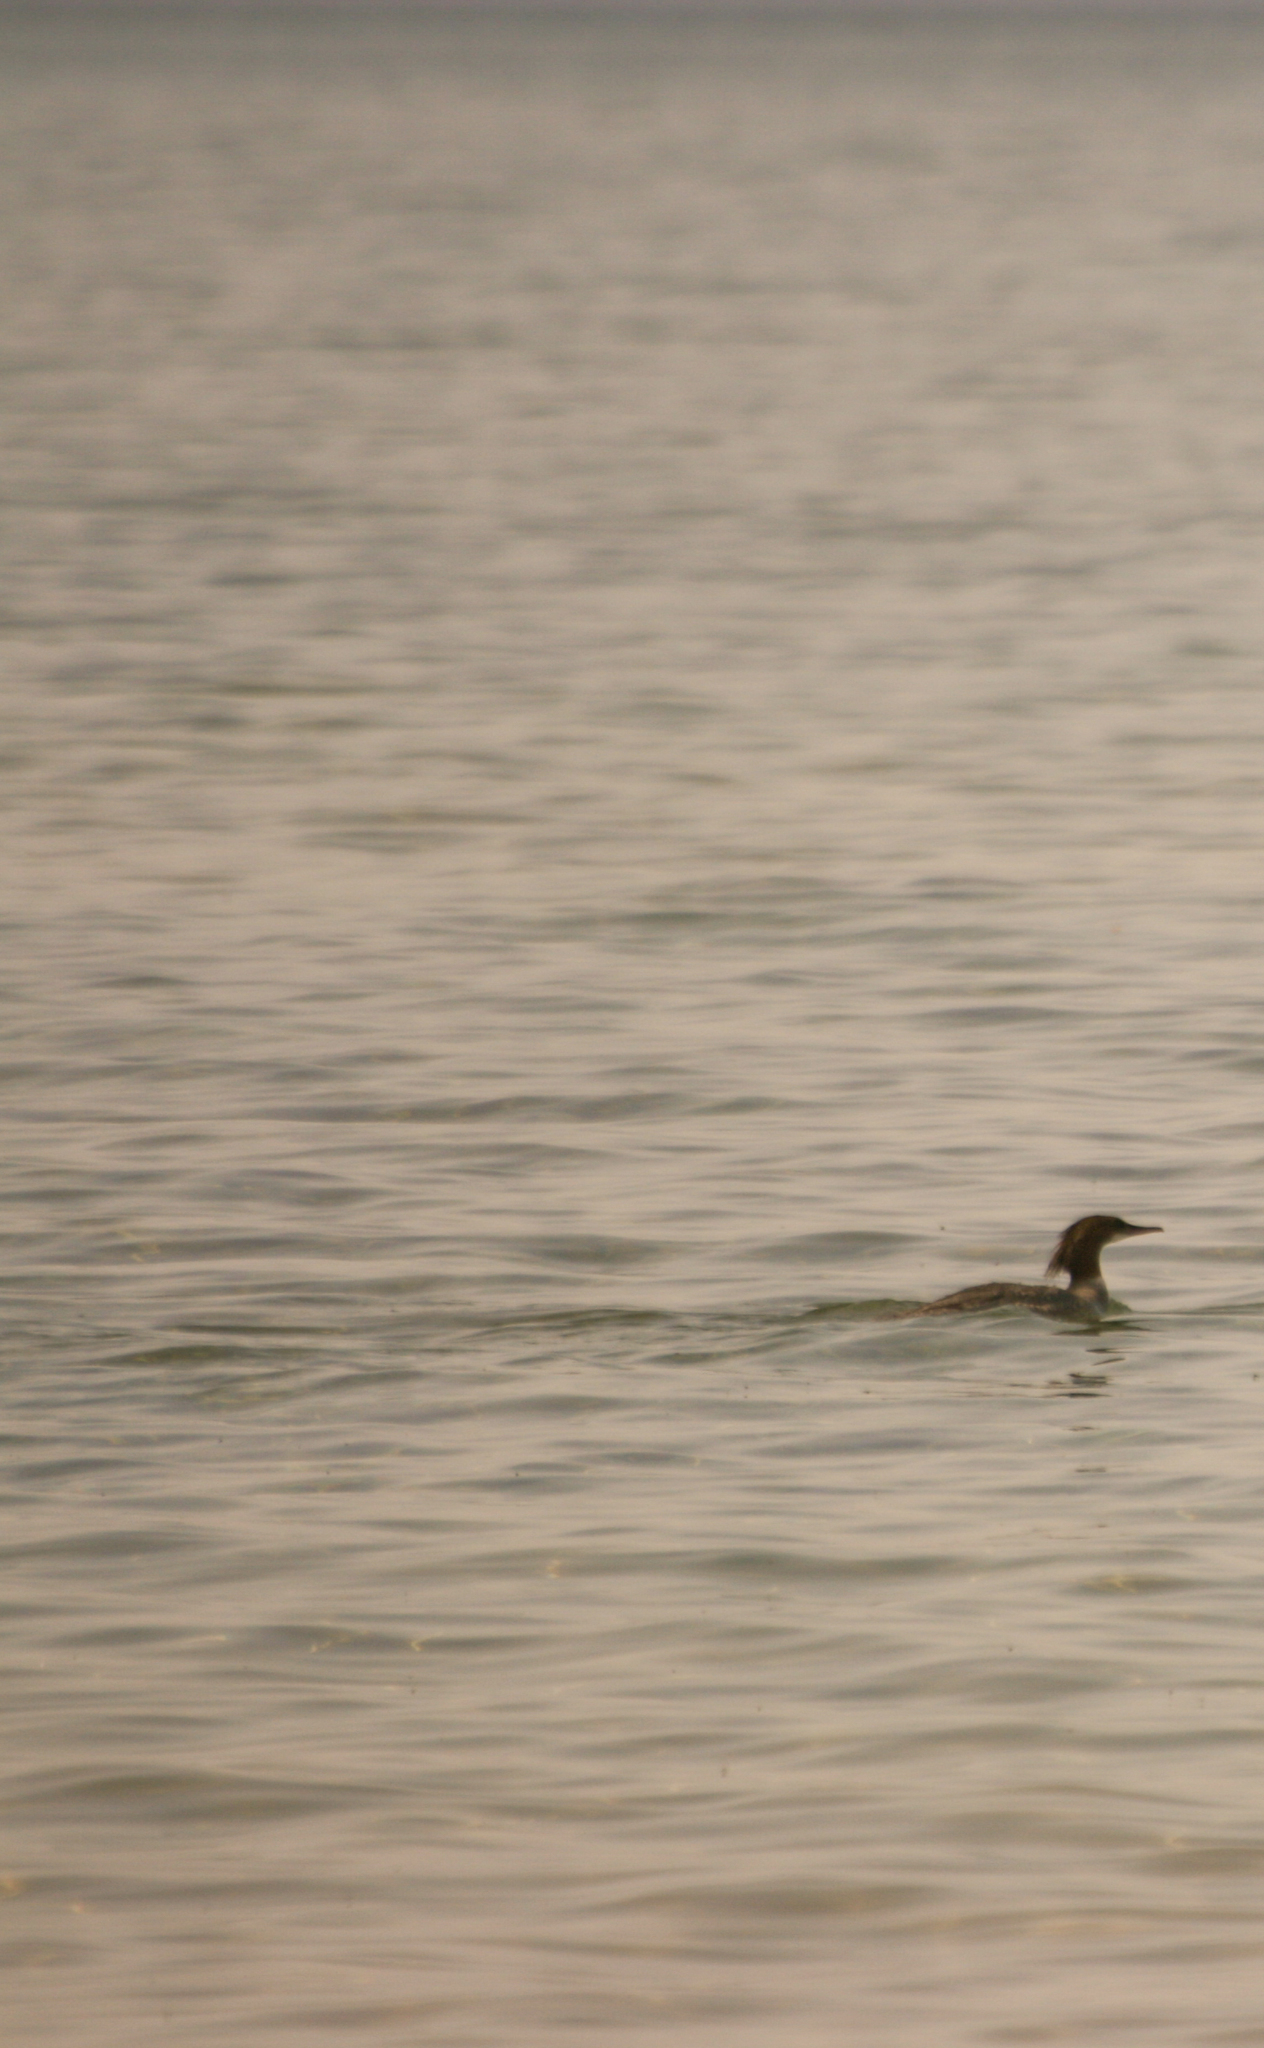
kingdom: Animalia
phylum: Chordata
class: Aves
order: Anseriformes
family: Anatidae
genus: Mergus
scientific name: Mergus merganser
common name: Common merganser
